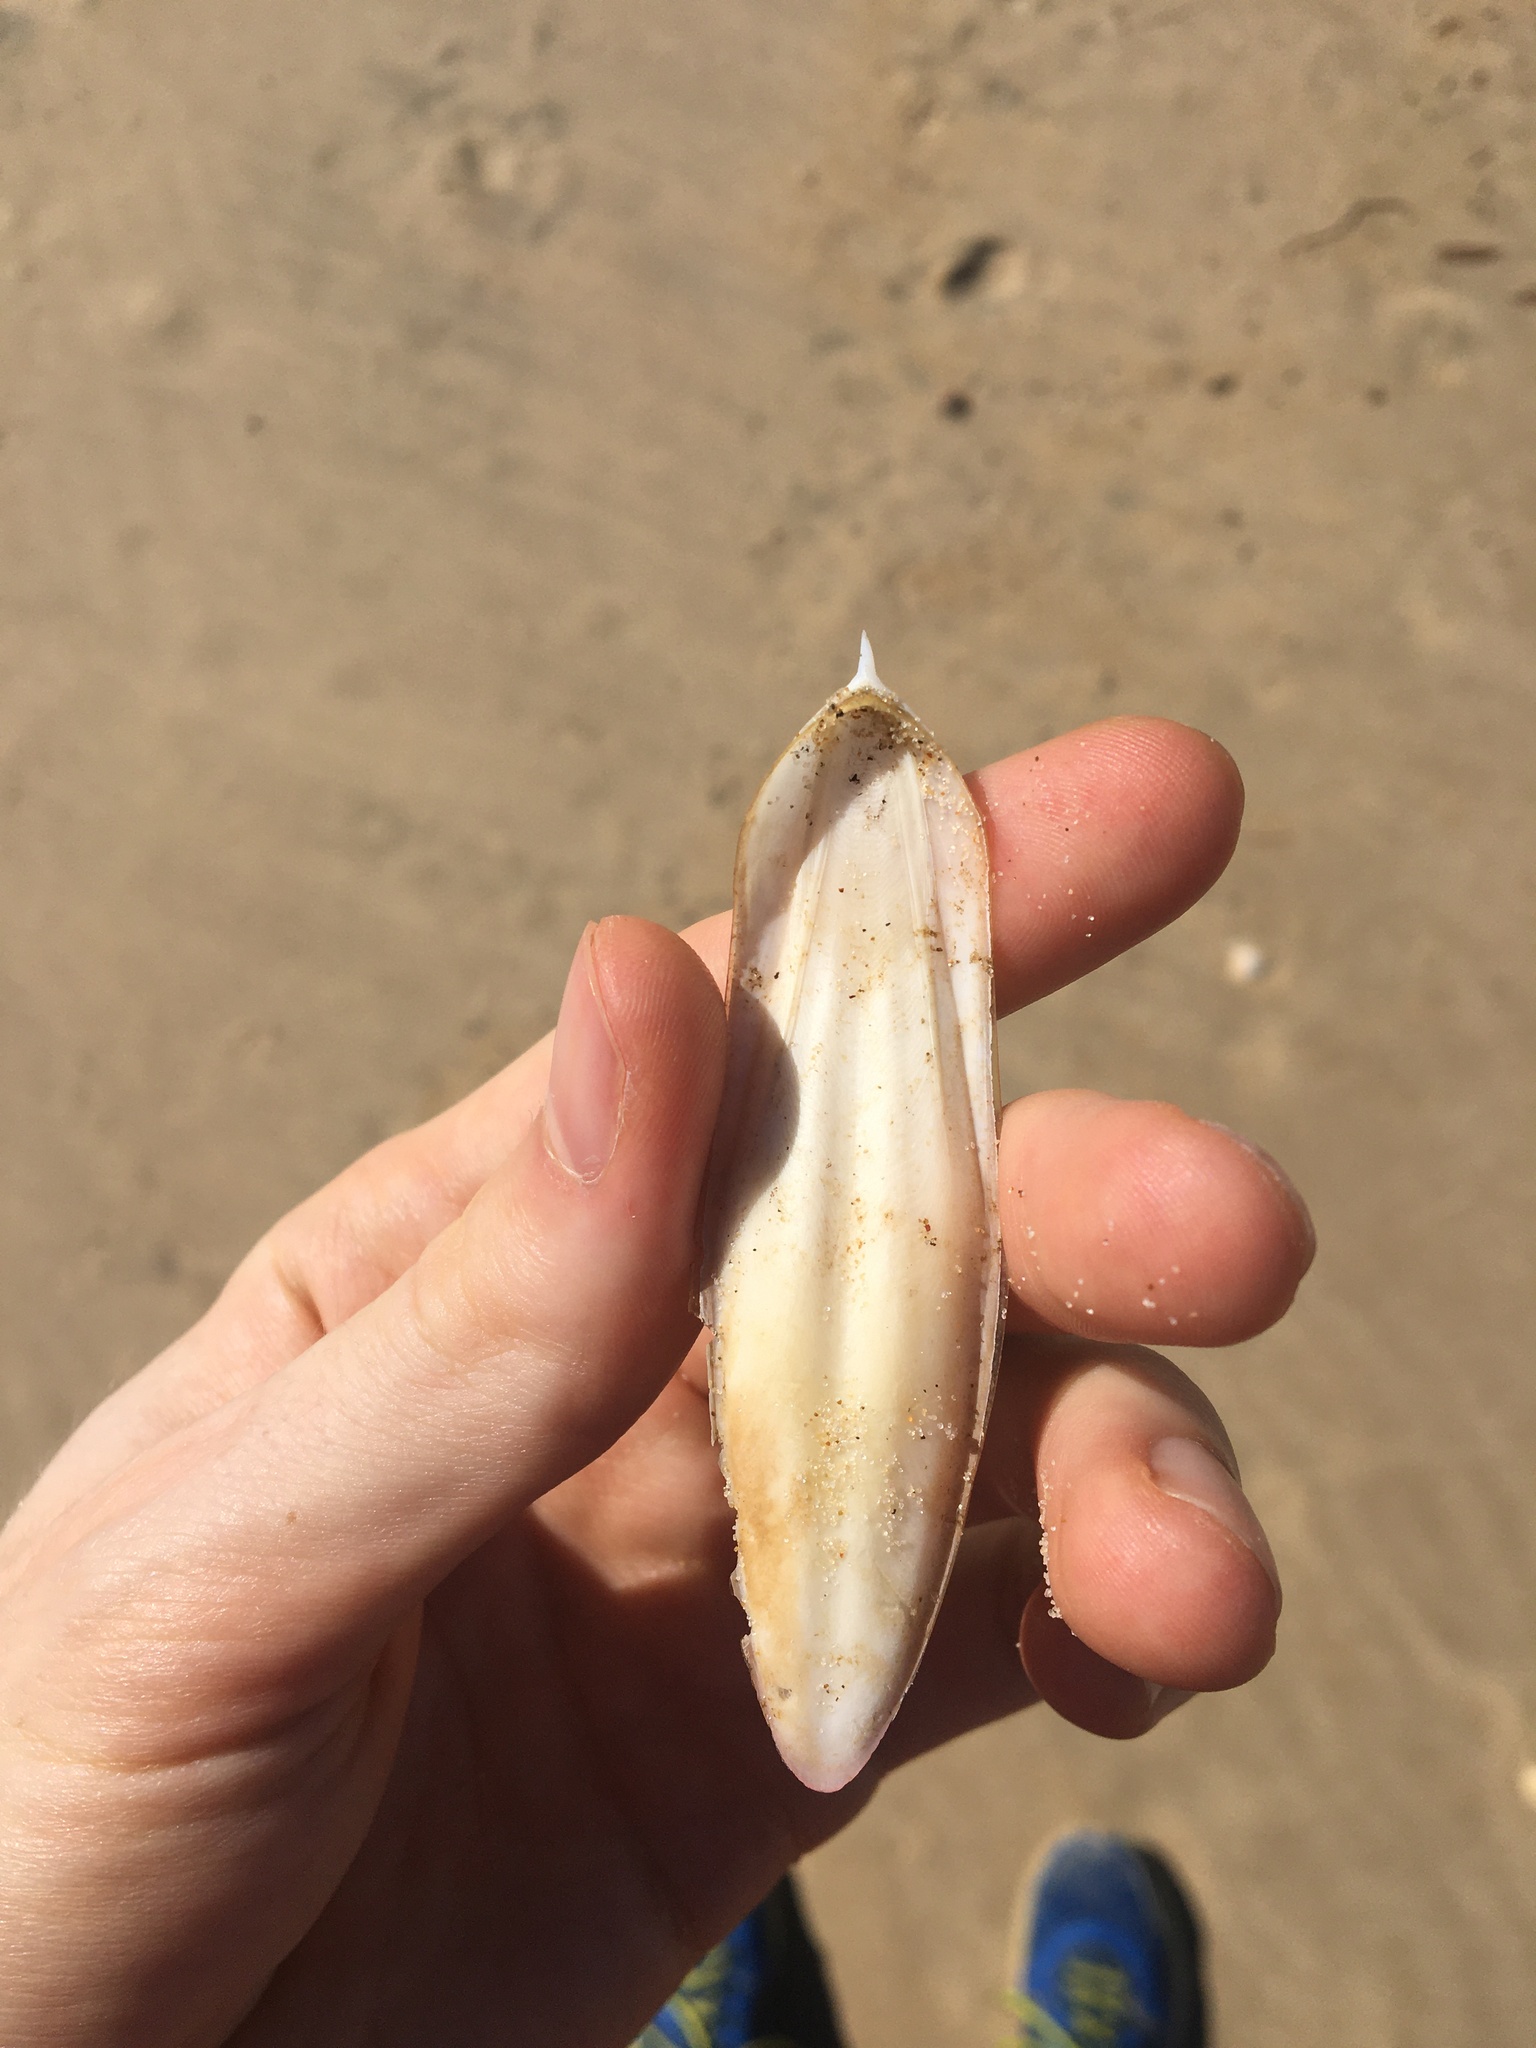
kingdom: Animalia
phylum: Mollusca
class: Cephalopoda
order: Sepiida
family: Sepiidae
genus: Ascarosepion
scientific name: Ascarosepion plangon
